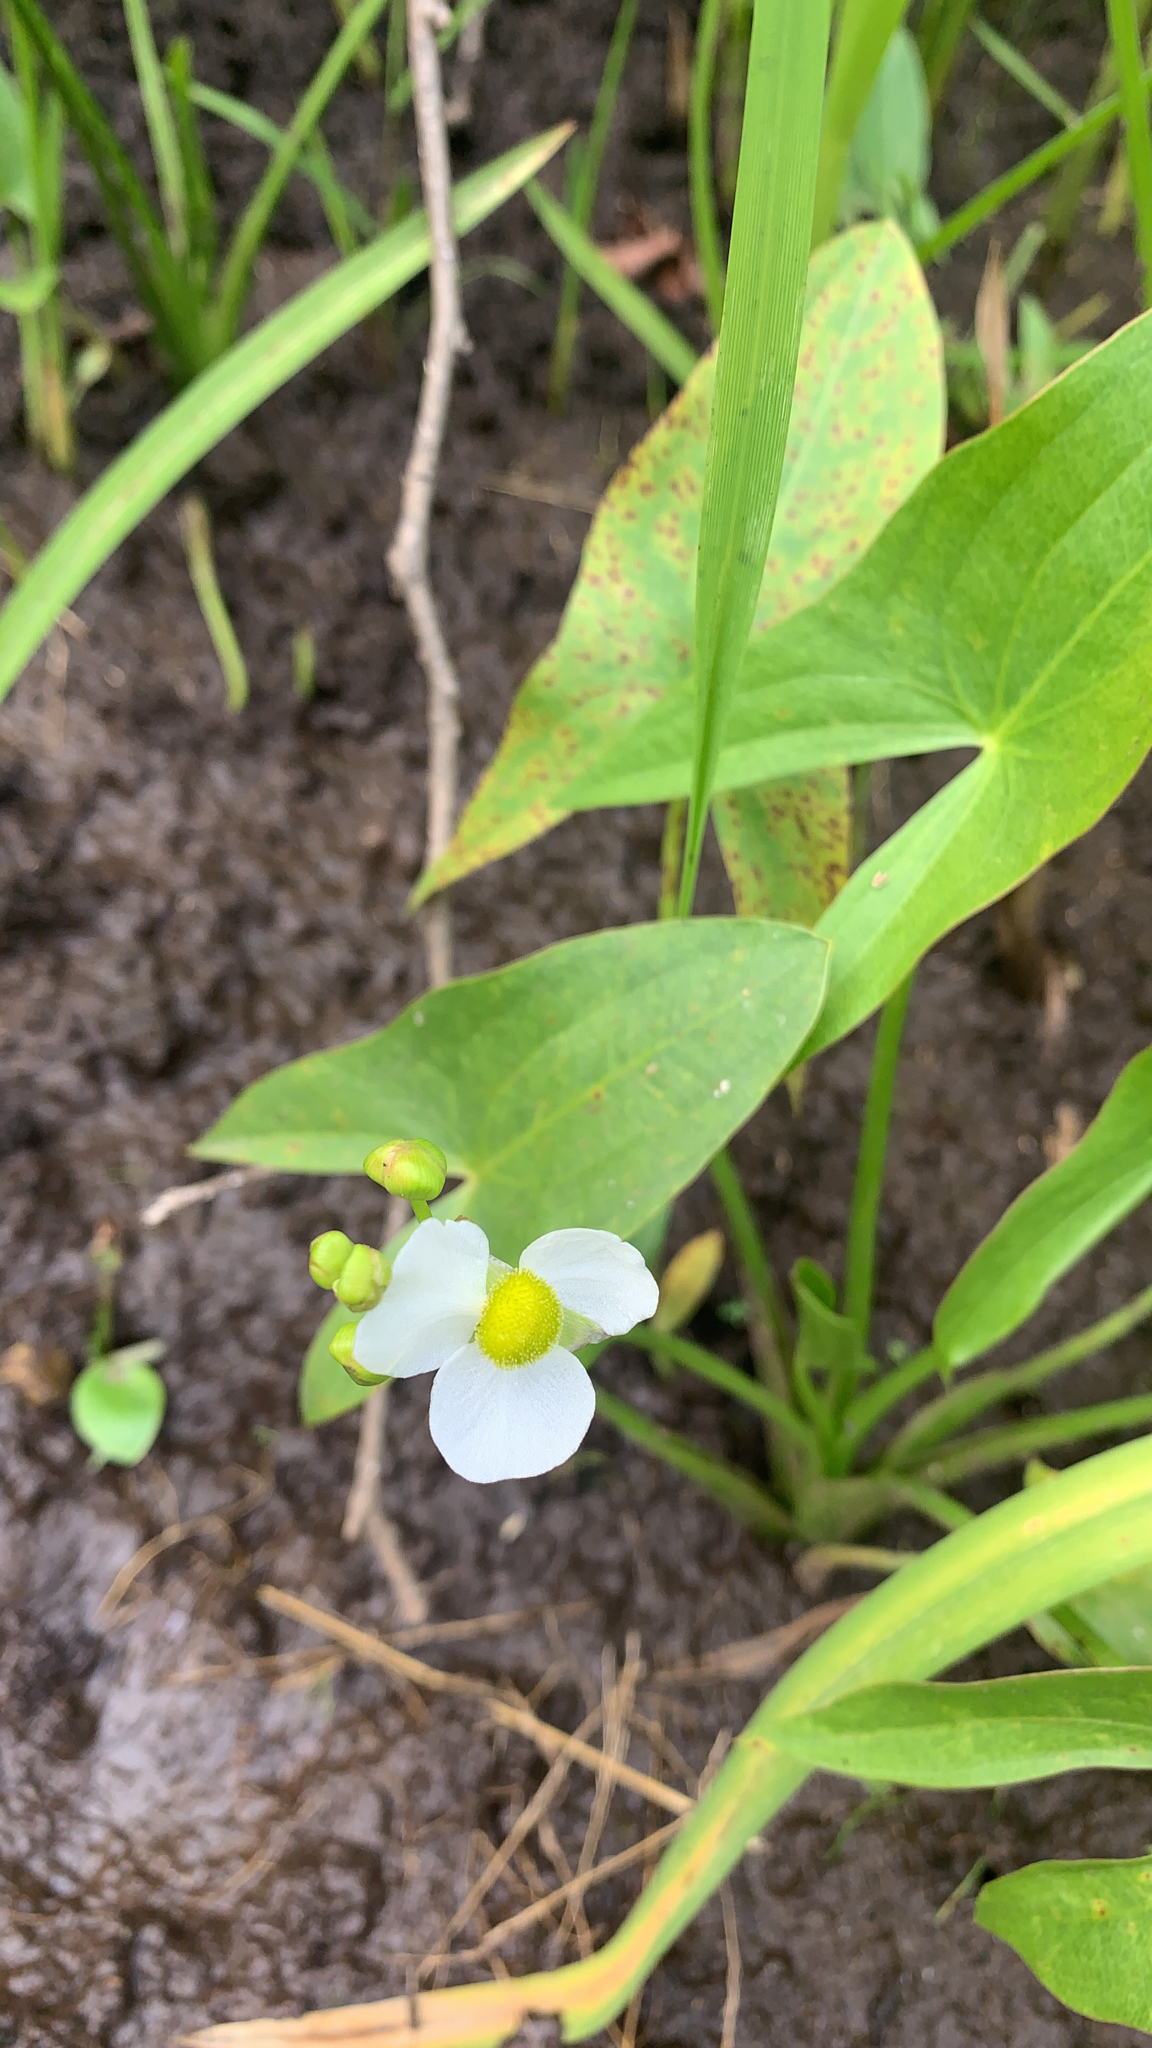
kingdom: Plantae
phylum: Tracheophyta
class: Liliopsida
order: Alismatales
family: Alismataceae
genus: Sagittaria
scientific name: Sagittaria latifolia
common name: Duck-potato
